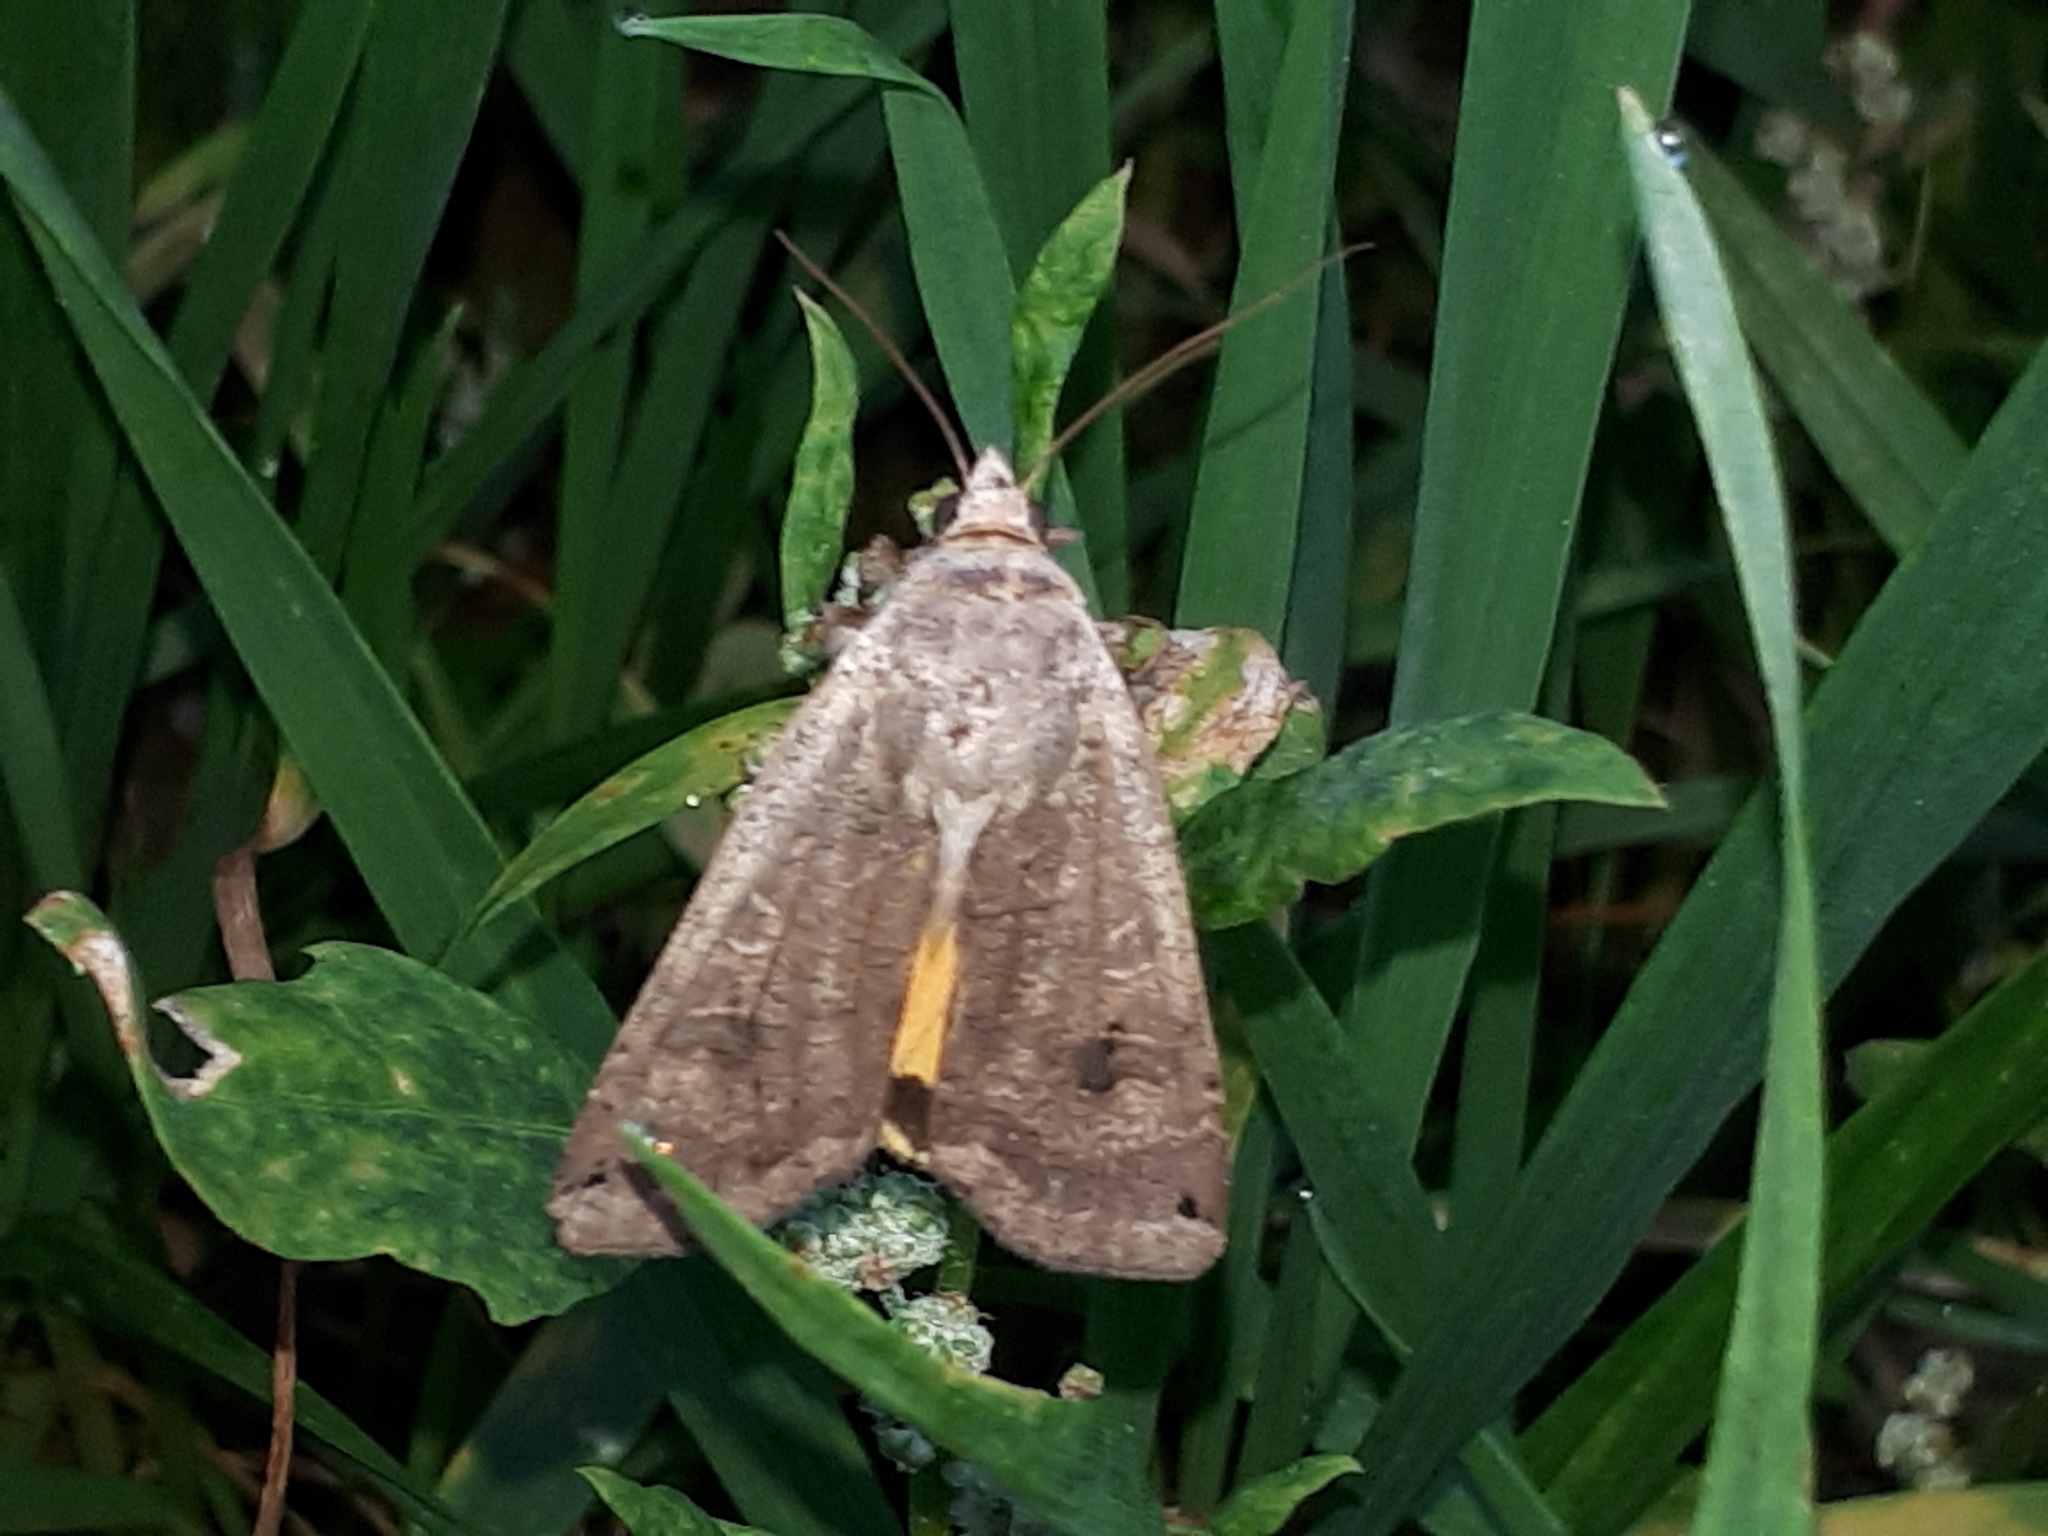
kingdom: Animalia
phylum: Arthropoda
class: Insecta
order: Lepidoptera
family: Noctuidae
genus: Noctua
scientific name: Noctua pronuba
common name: Large yellow underwing
